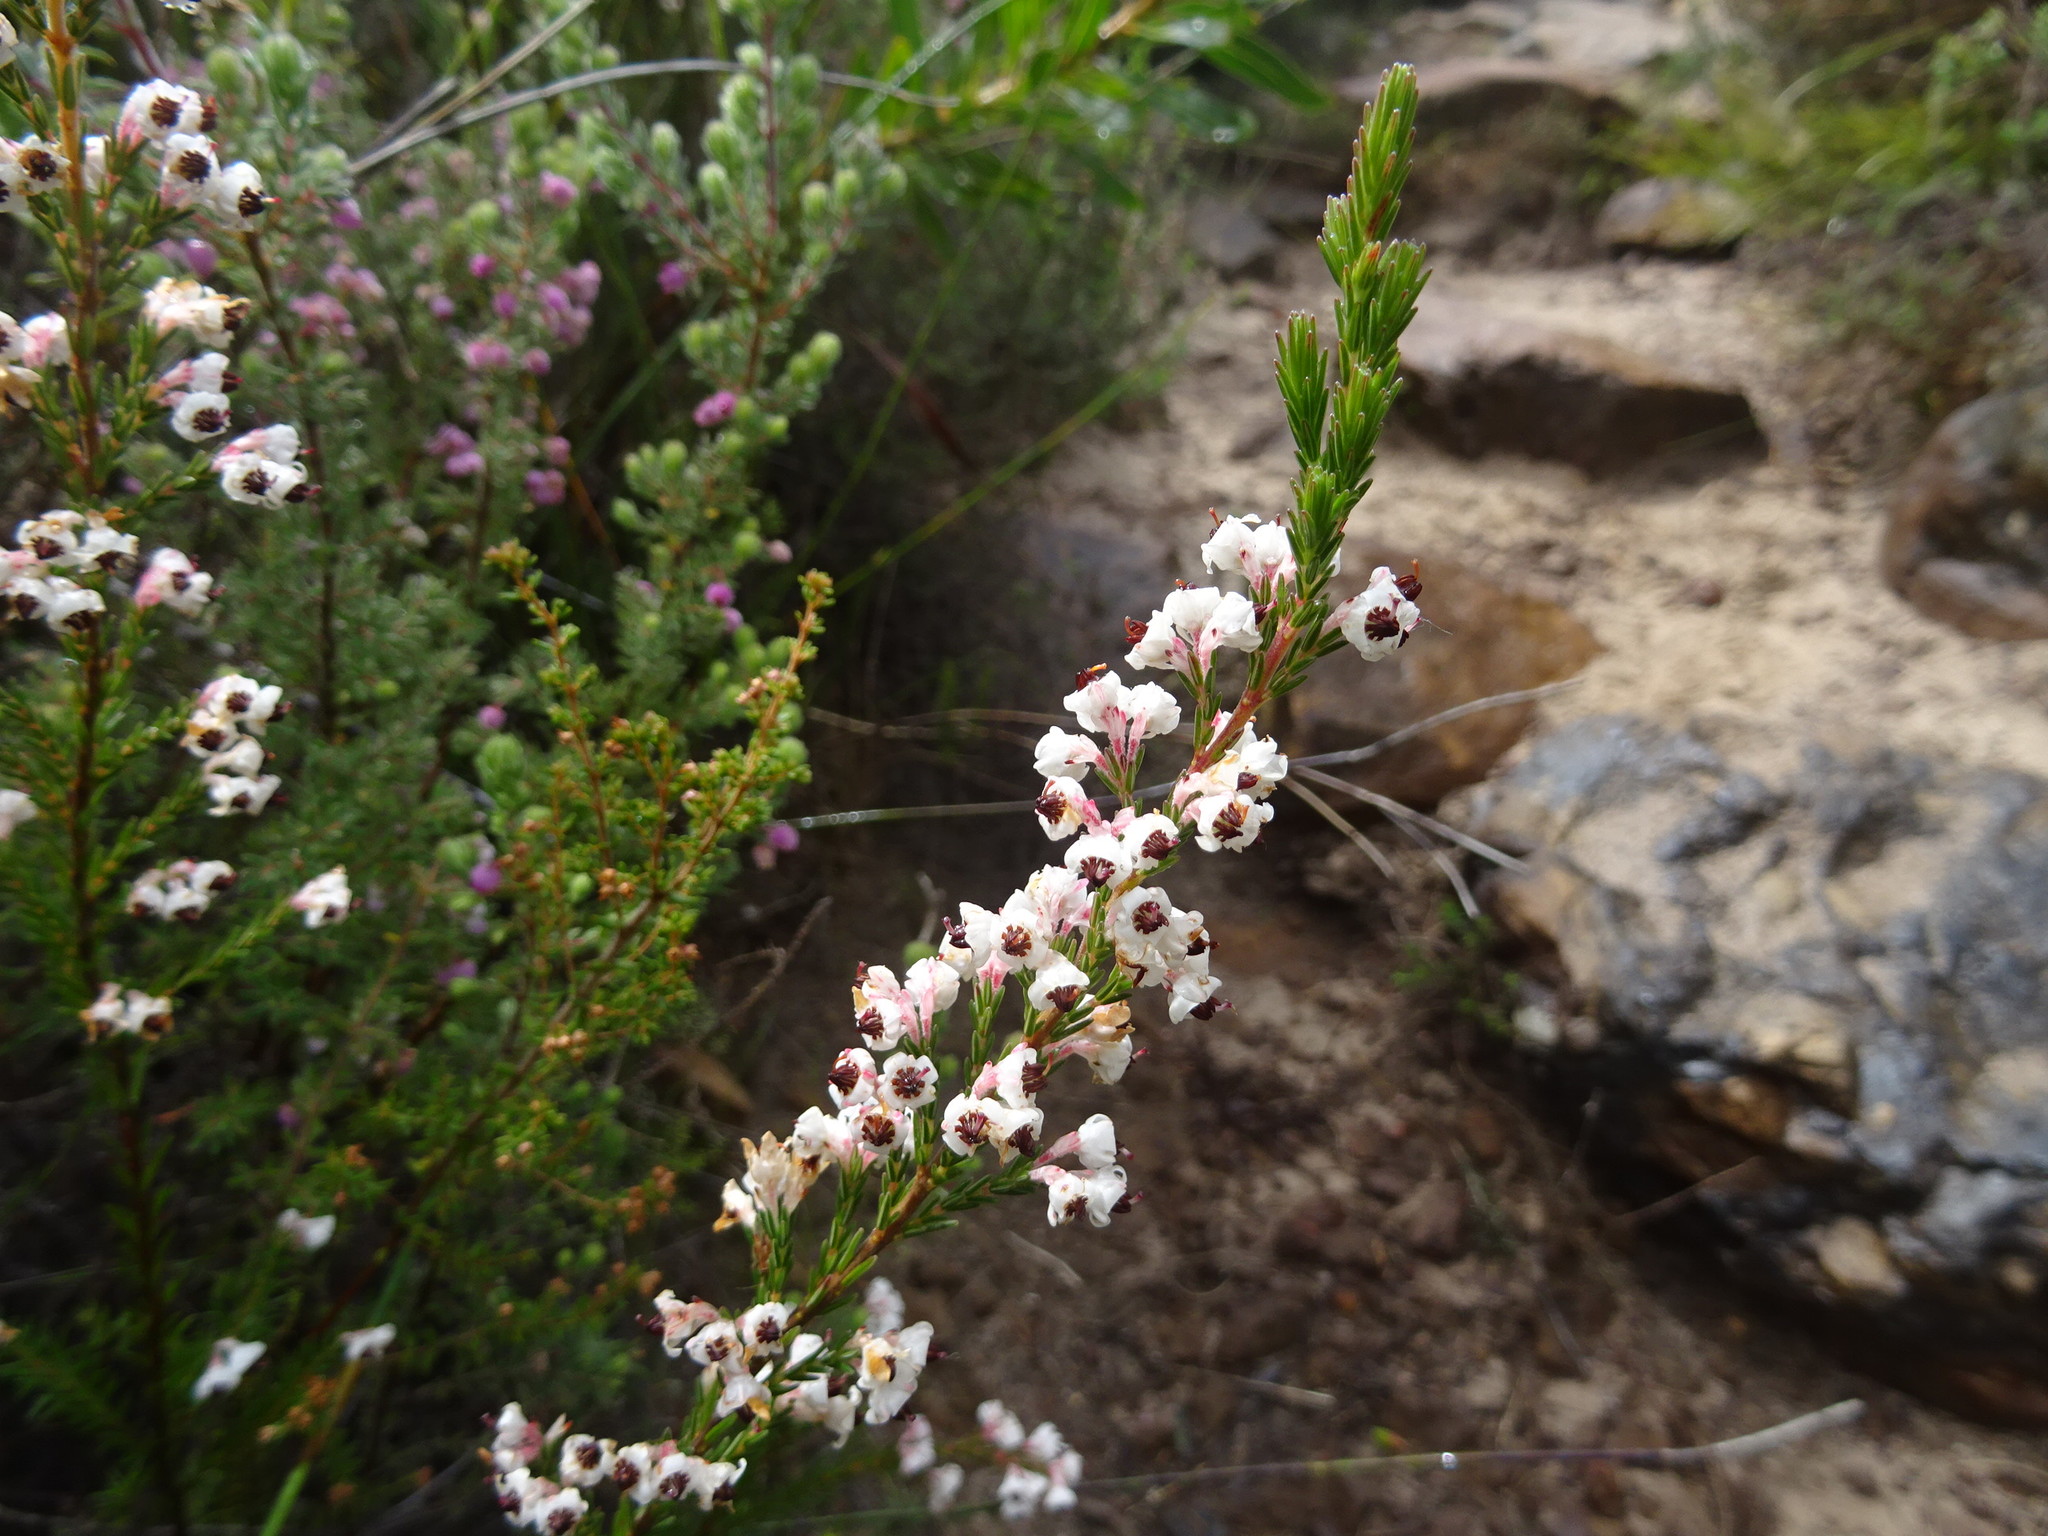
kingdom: Plantae
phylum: Tracheophyta
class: Magnoliopsida
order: Ericales
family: Ericaceae
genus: Erica
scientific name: Erica calycina
